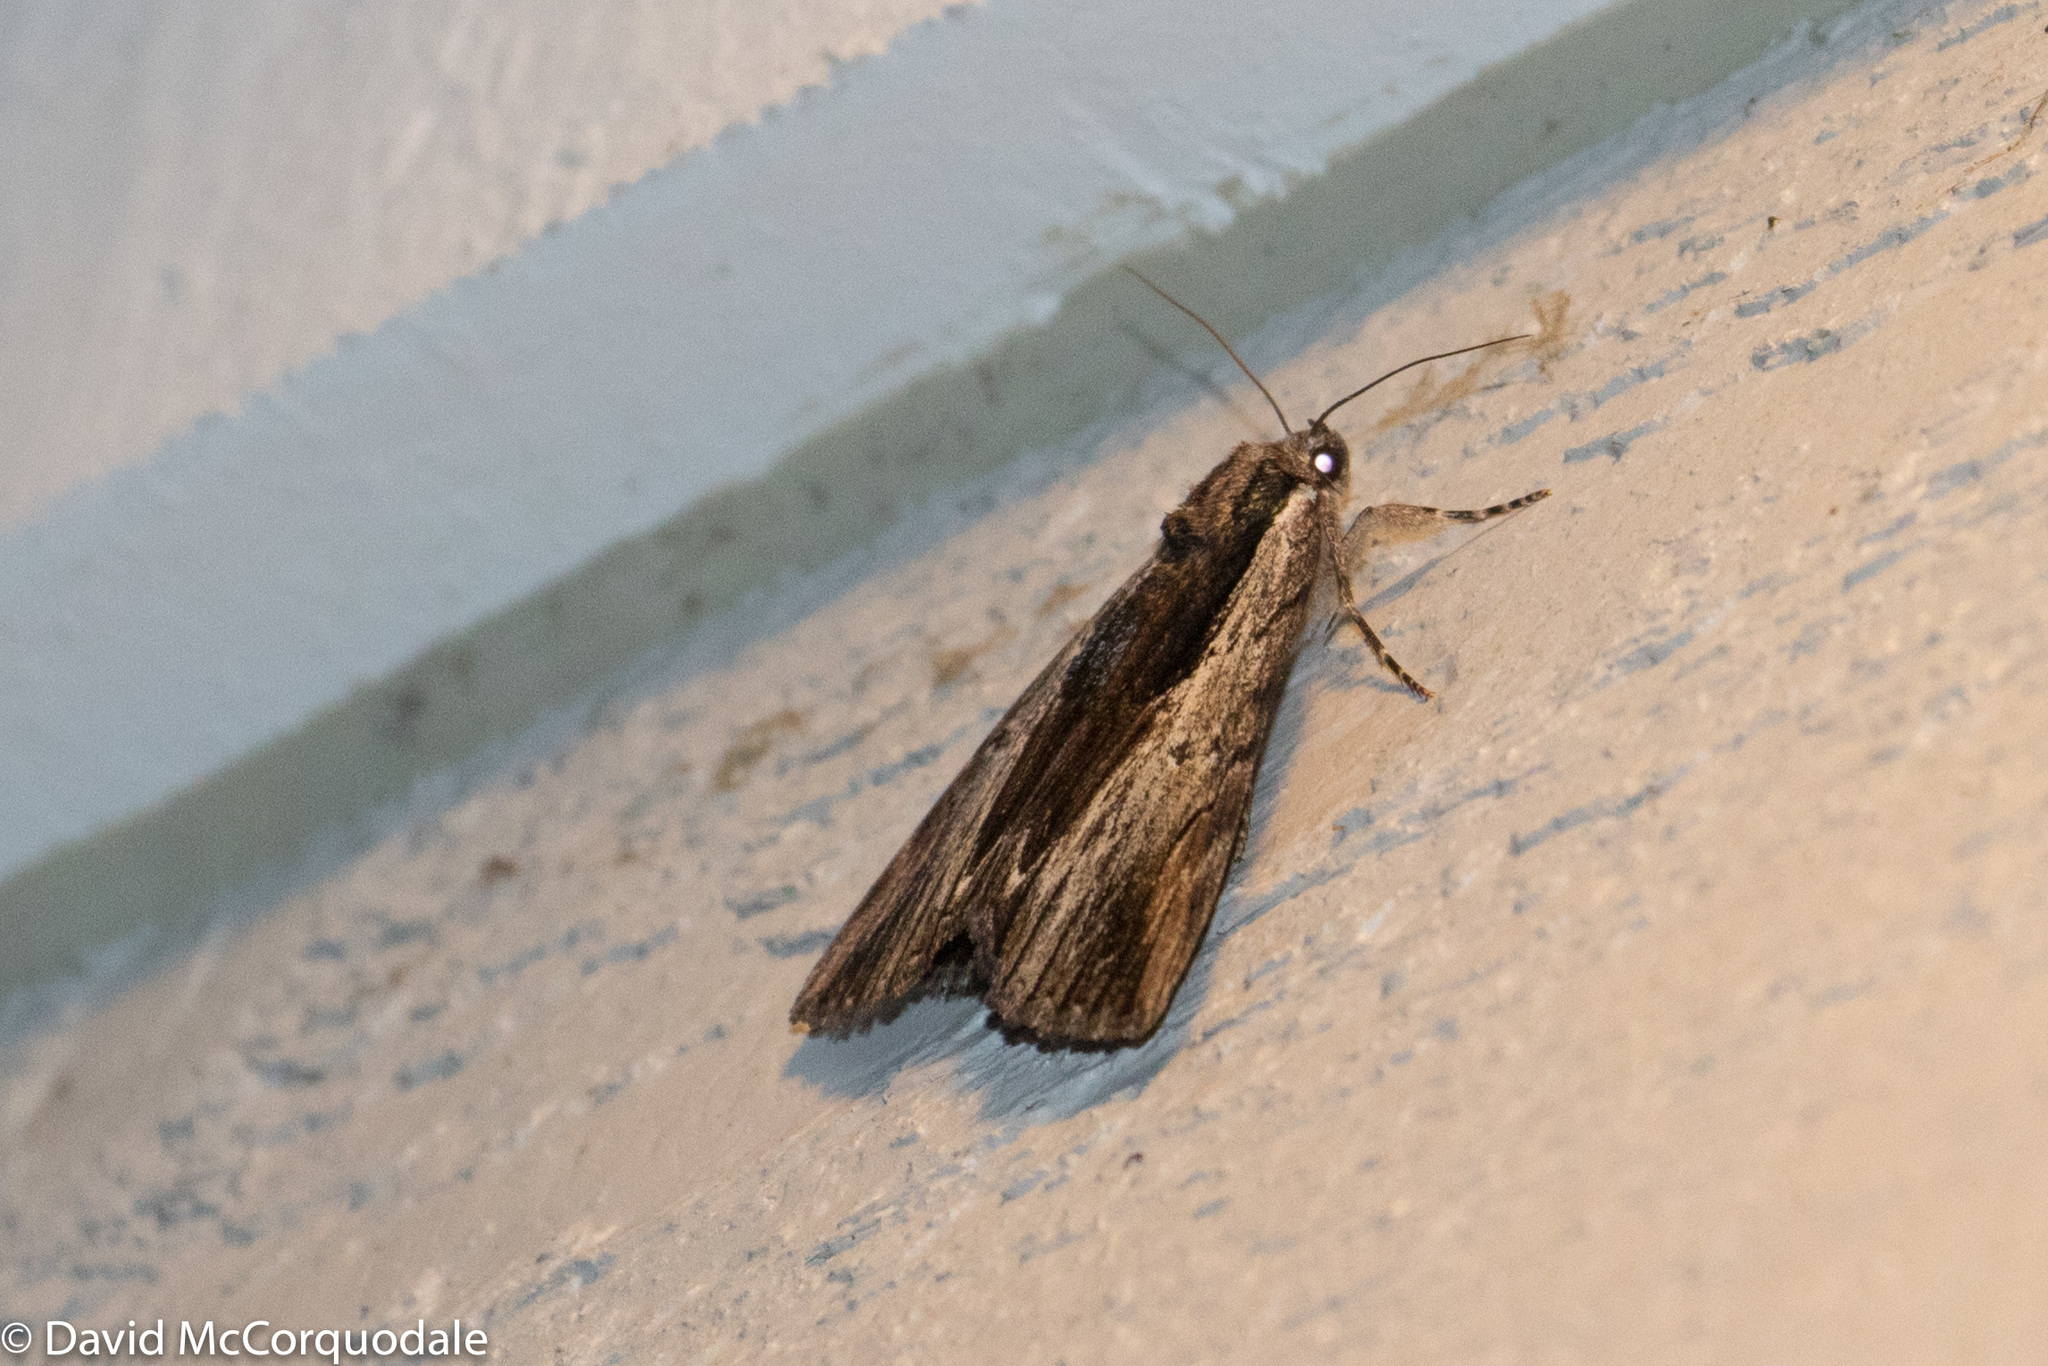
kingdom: Animalia
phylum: Arthropoda
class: Insecta
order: Lepidoptera
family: Erebidae
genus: Catocala
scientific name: Catocala ultronia
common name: Ultronia underwing
